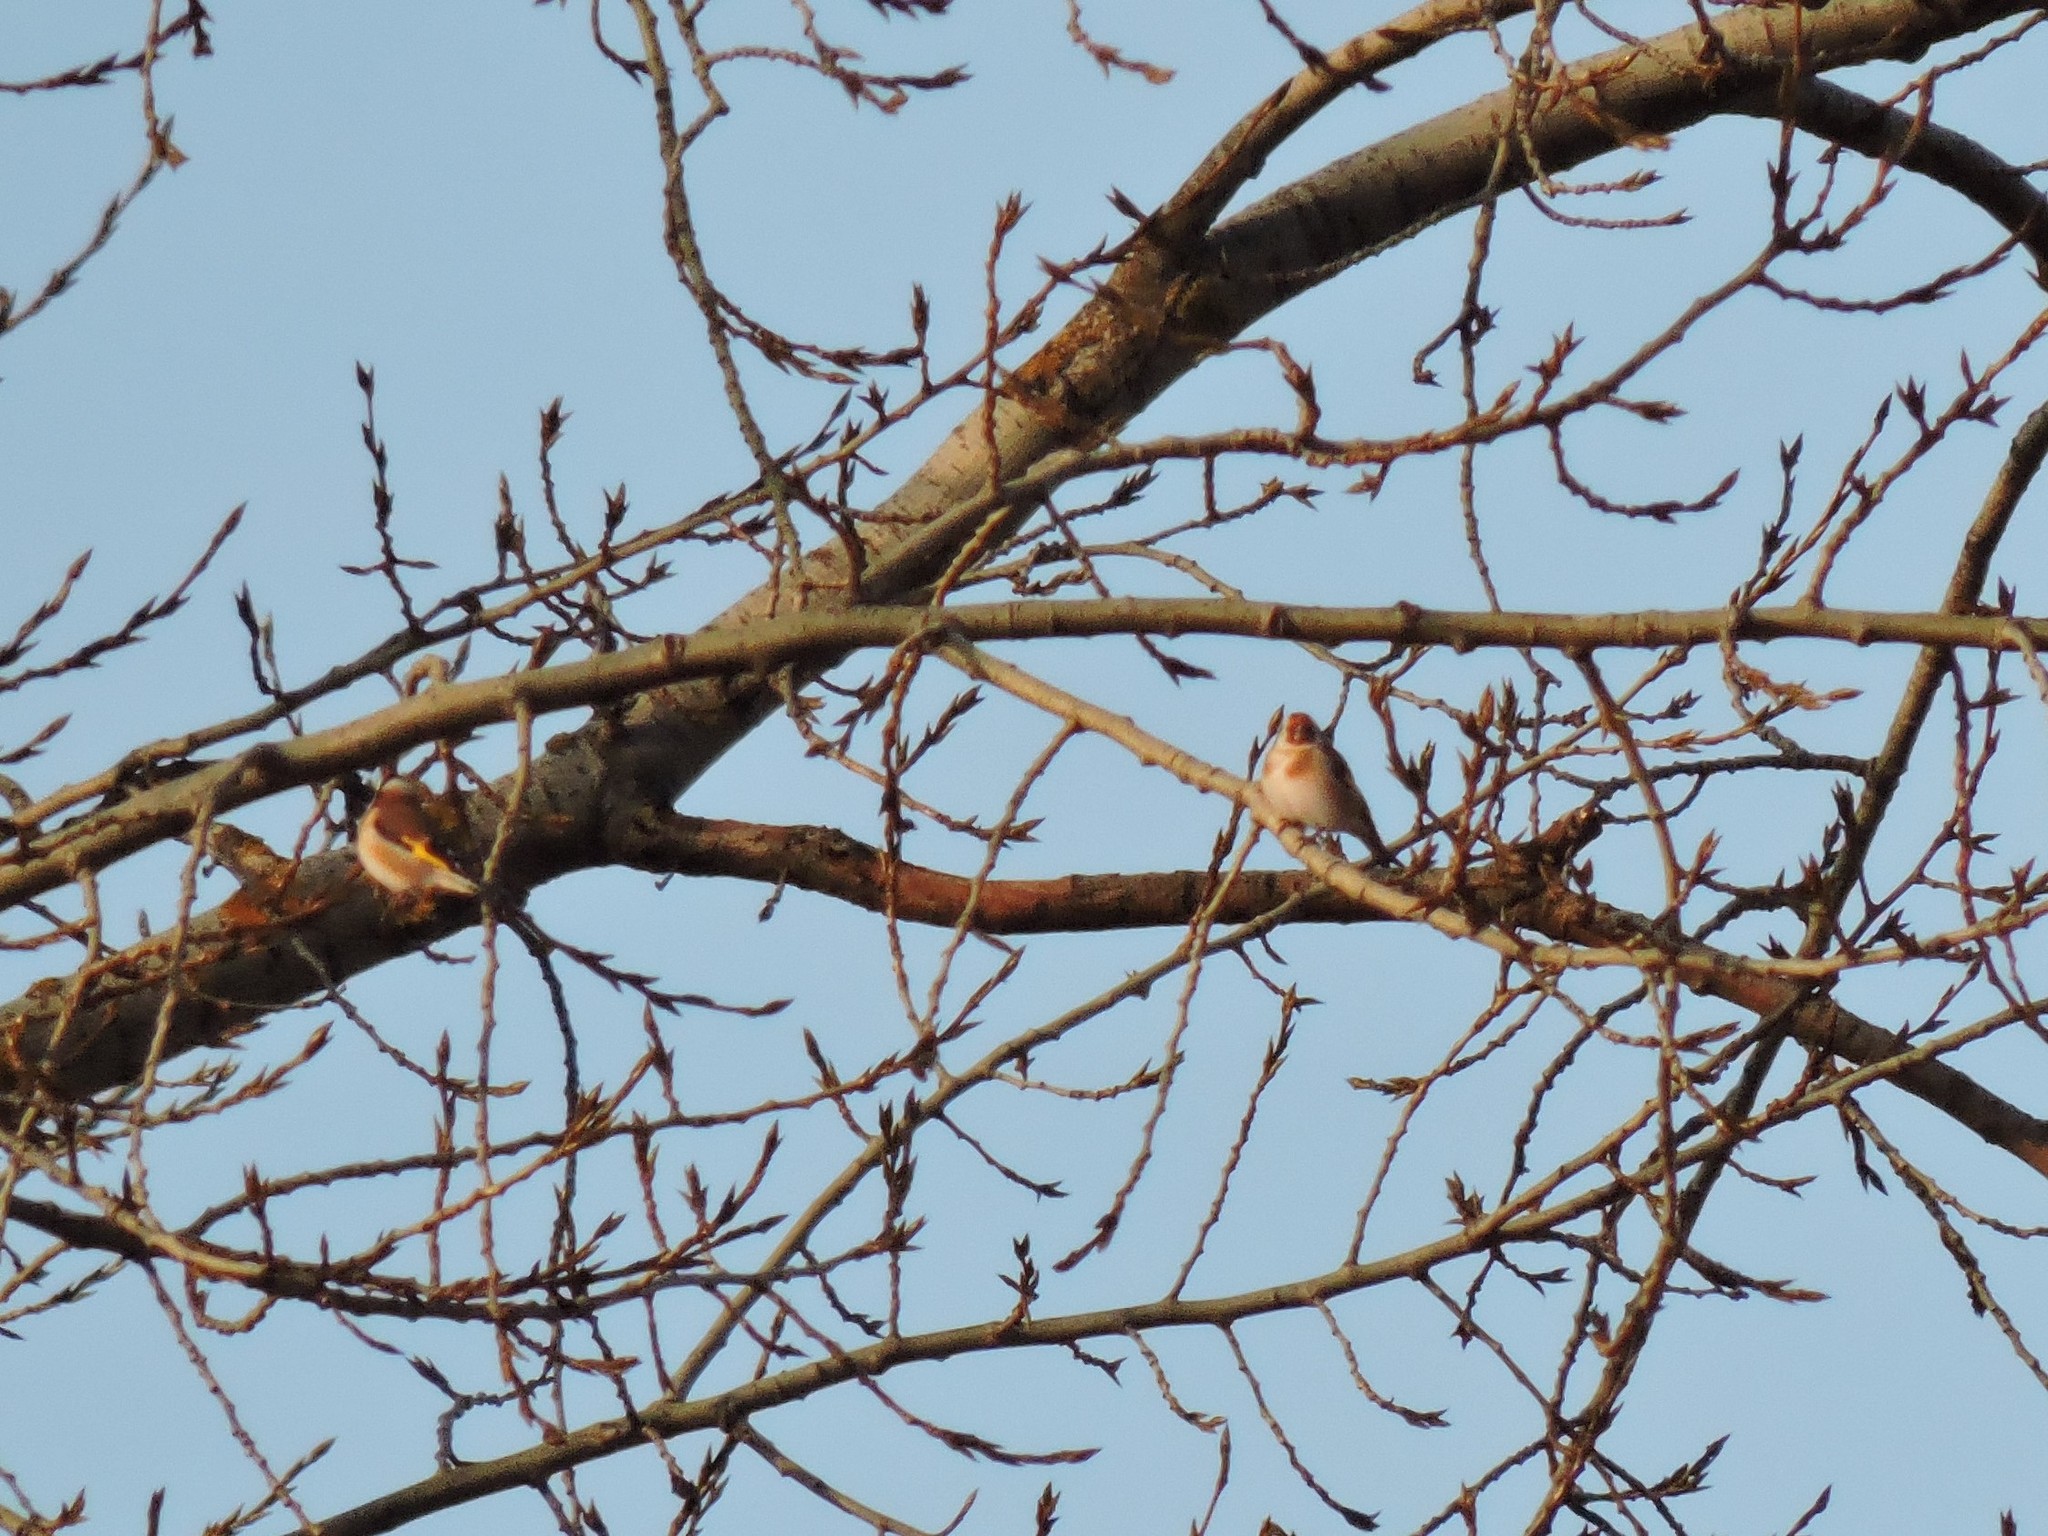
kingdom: Animalia
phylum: Chordata
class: Aves
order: Passeriformes
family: Fringillidae
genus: Carduelis
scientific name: Carduelis carduelis
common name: European goldfinch
